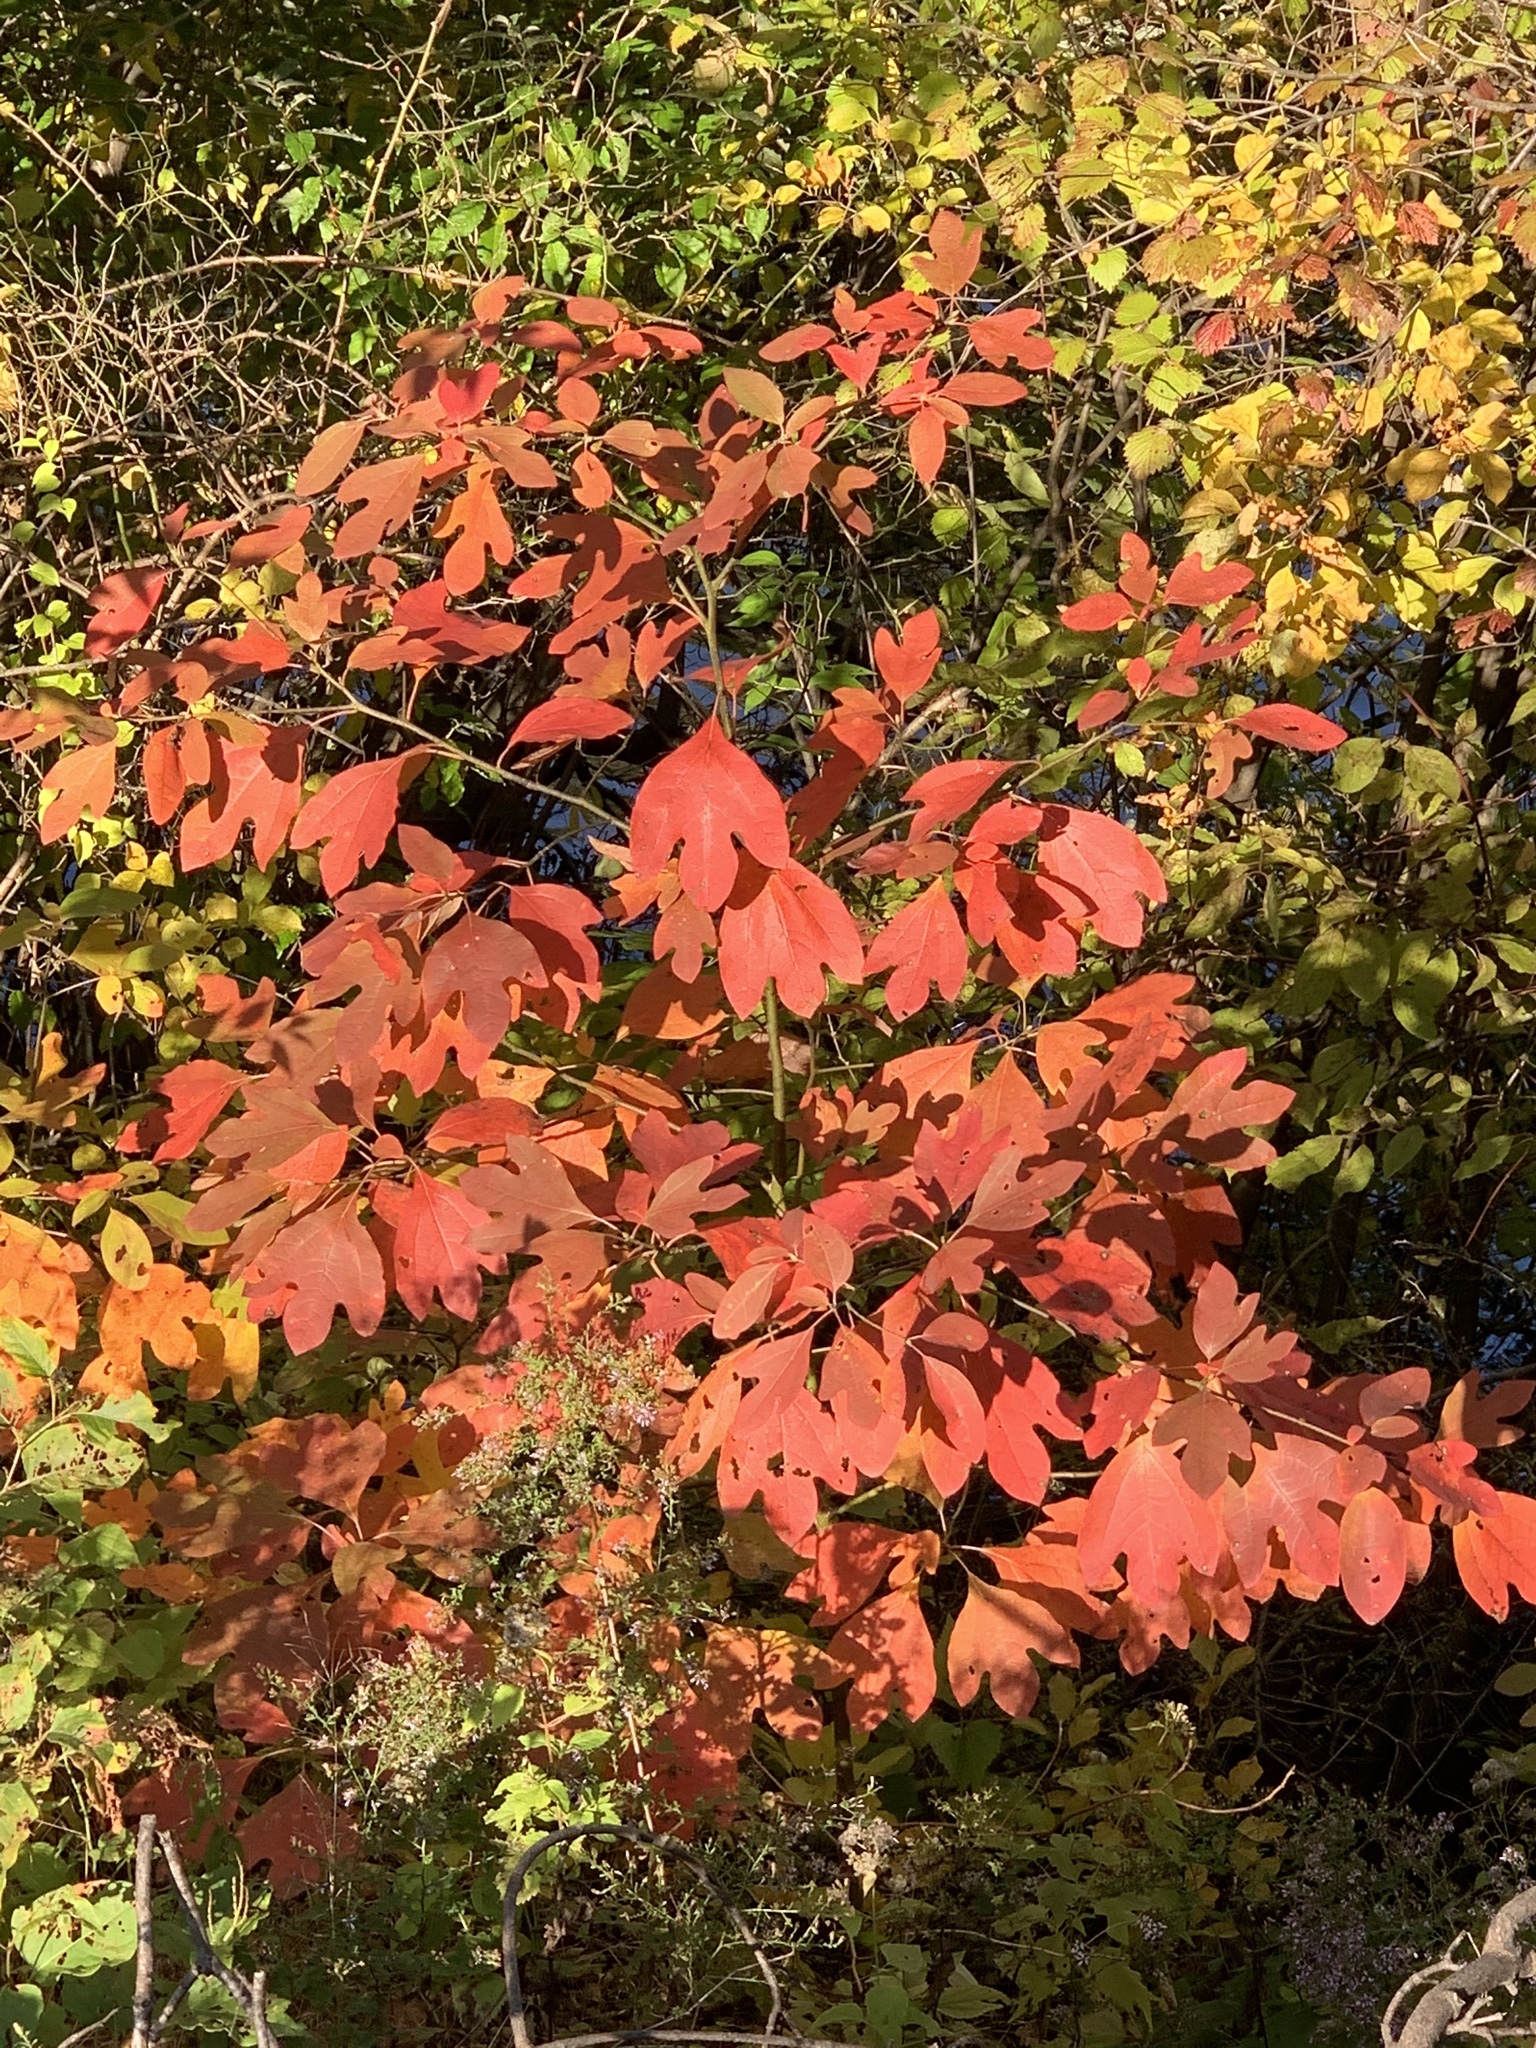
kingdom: Plantae
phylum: Tracheophyta
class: Magnoliopsida
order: Laurales
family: Lauraceae
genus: Sassafras
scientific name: Sassafras albidum
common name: Sassafras
